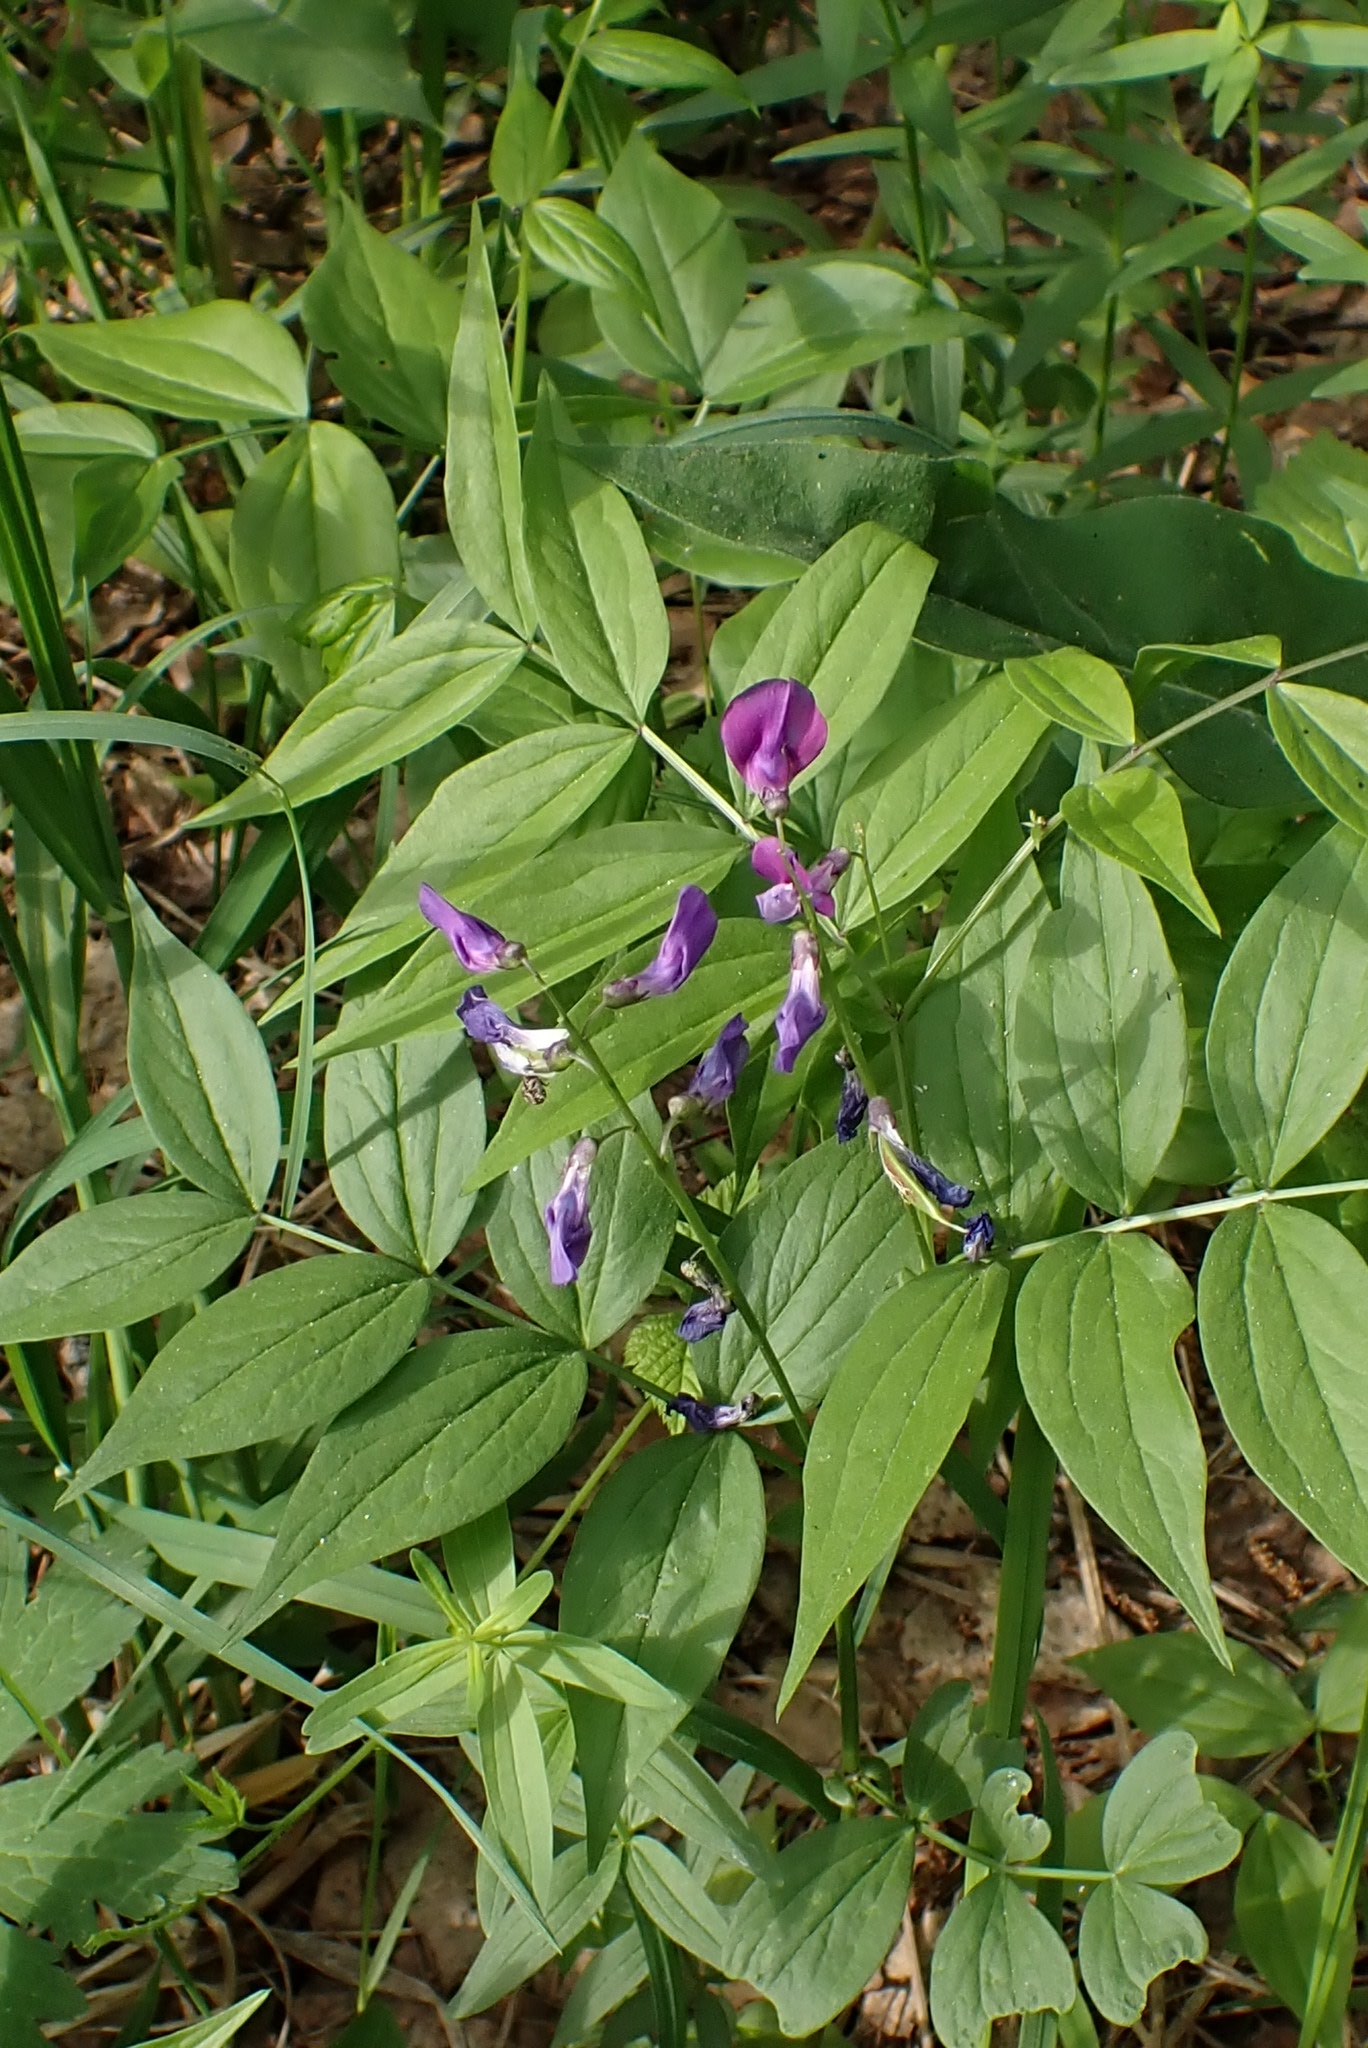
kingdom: Plantae
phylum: Tracheophyta
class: Magnoliopsida
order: Fabales
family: Fabaceae
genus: Lathyrus
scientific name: Lathyrus vernus
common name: Spring pea
